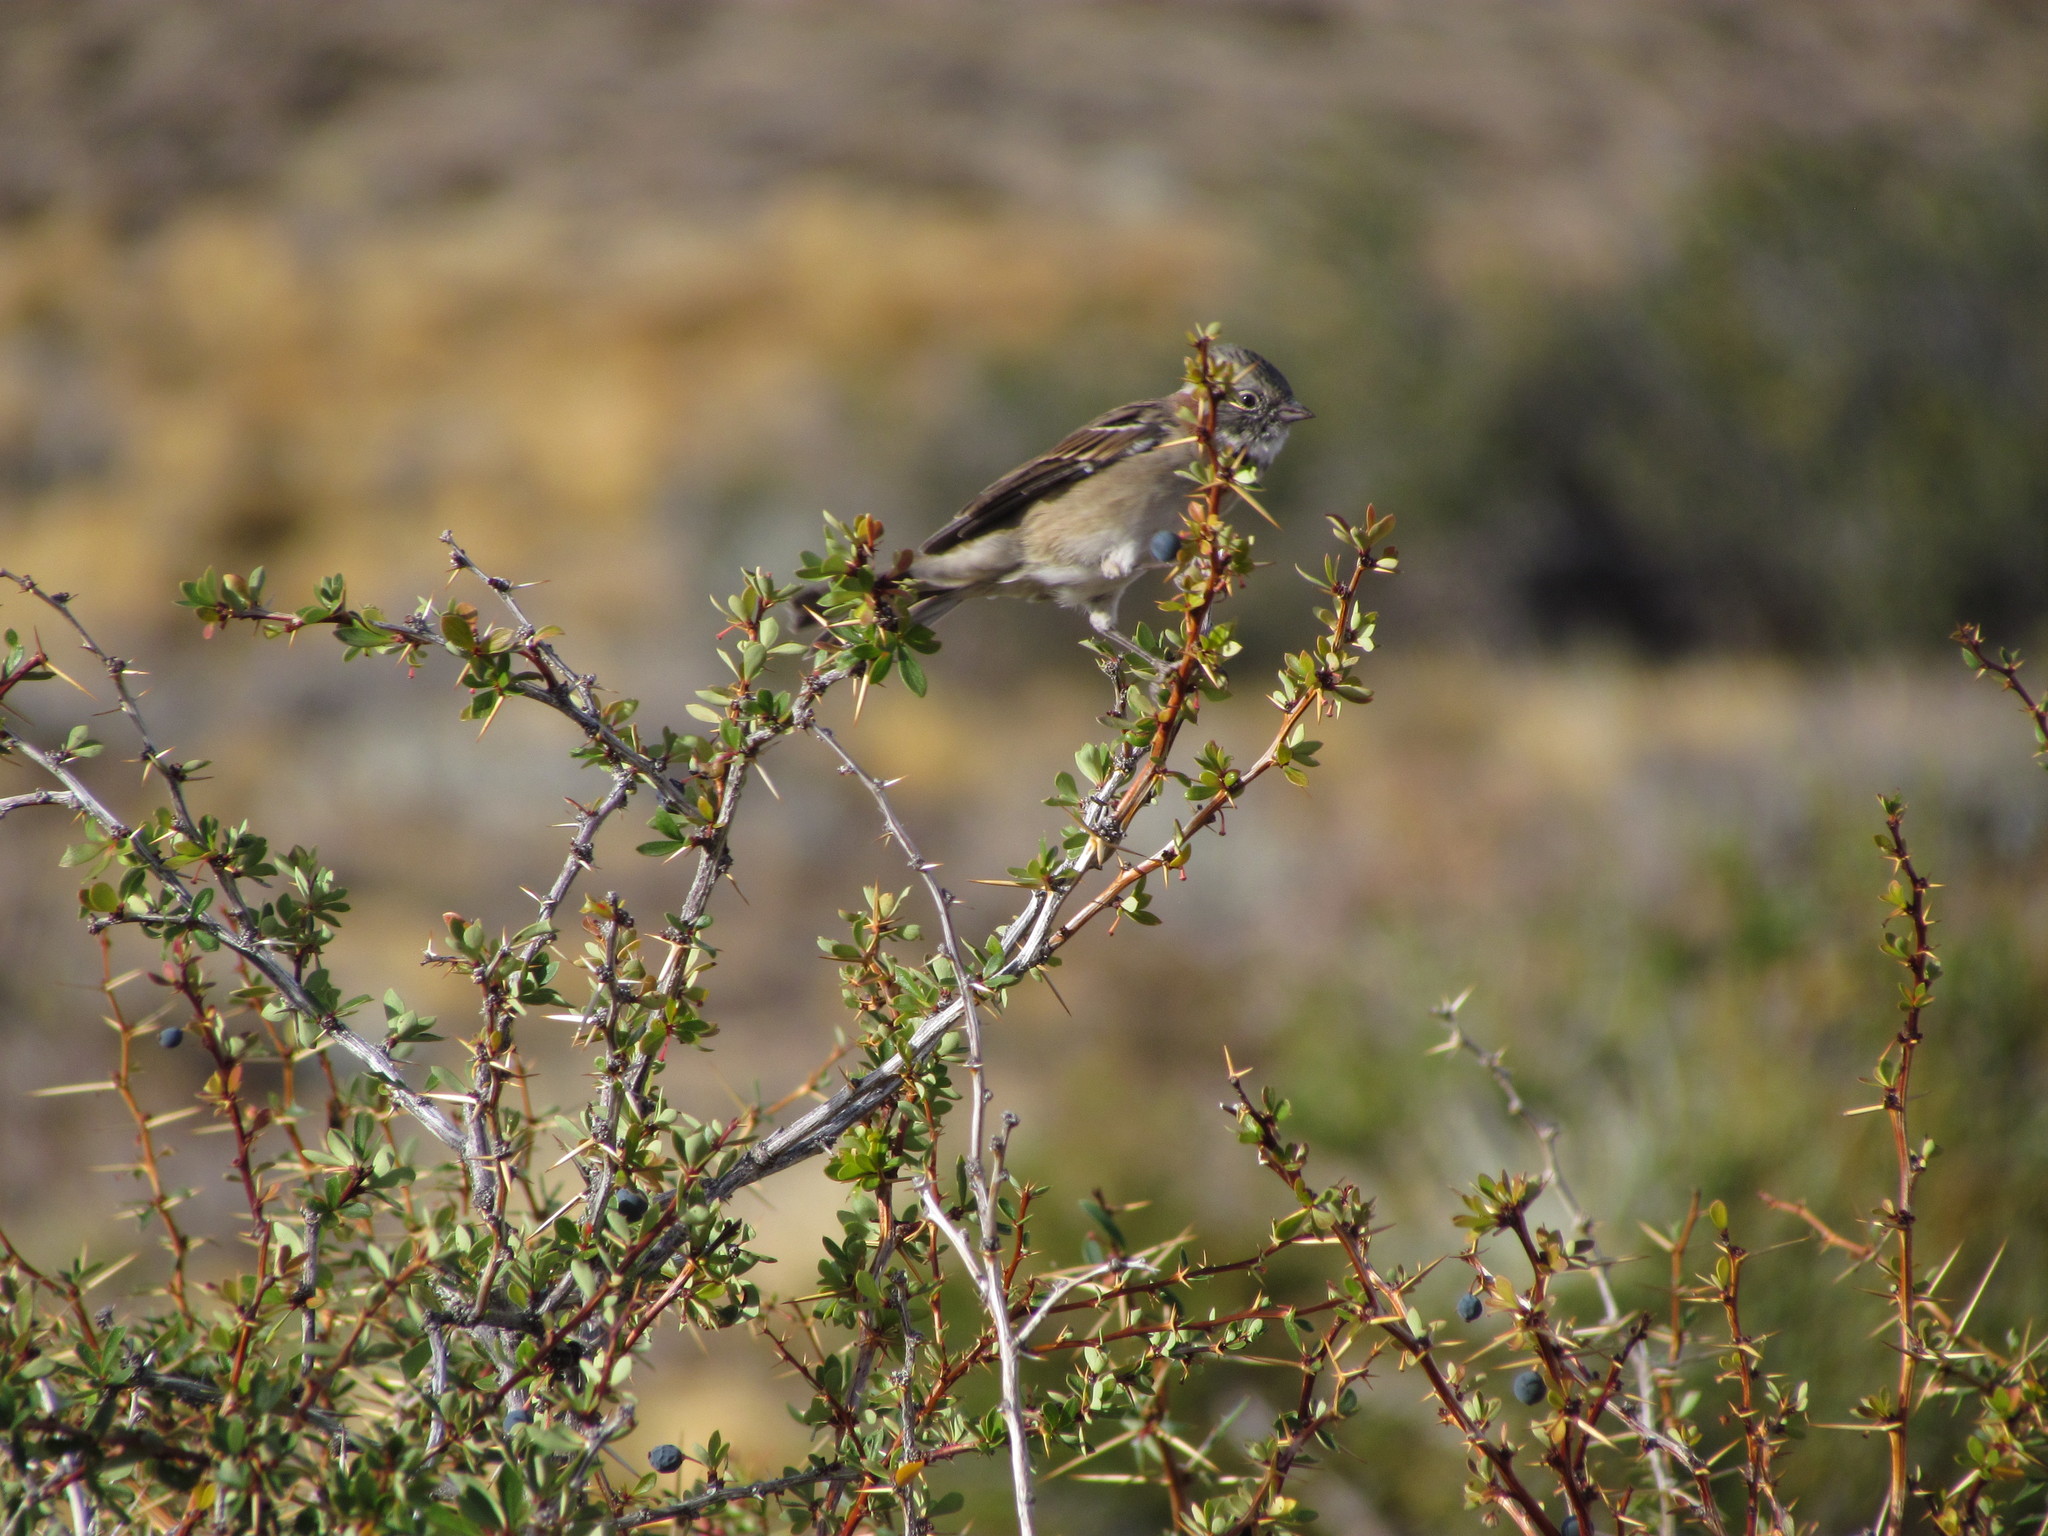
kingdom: Animalia
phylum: Chordata
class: Aves
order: Passeriformes
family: Passerellidae
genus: Zonotrichia
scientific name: Zonotrichia capensis
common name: Rufous-collared sparrow
